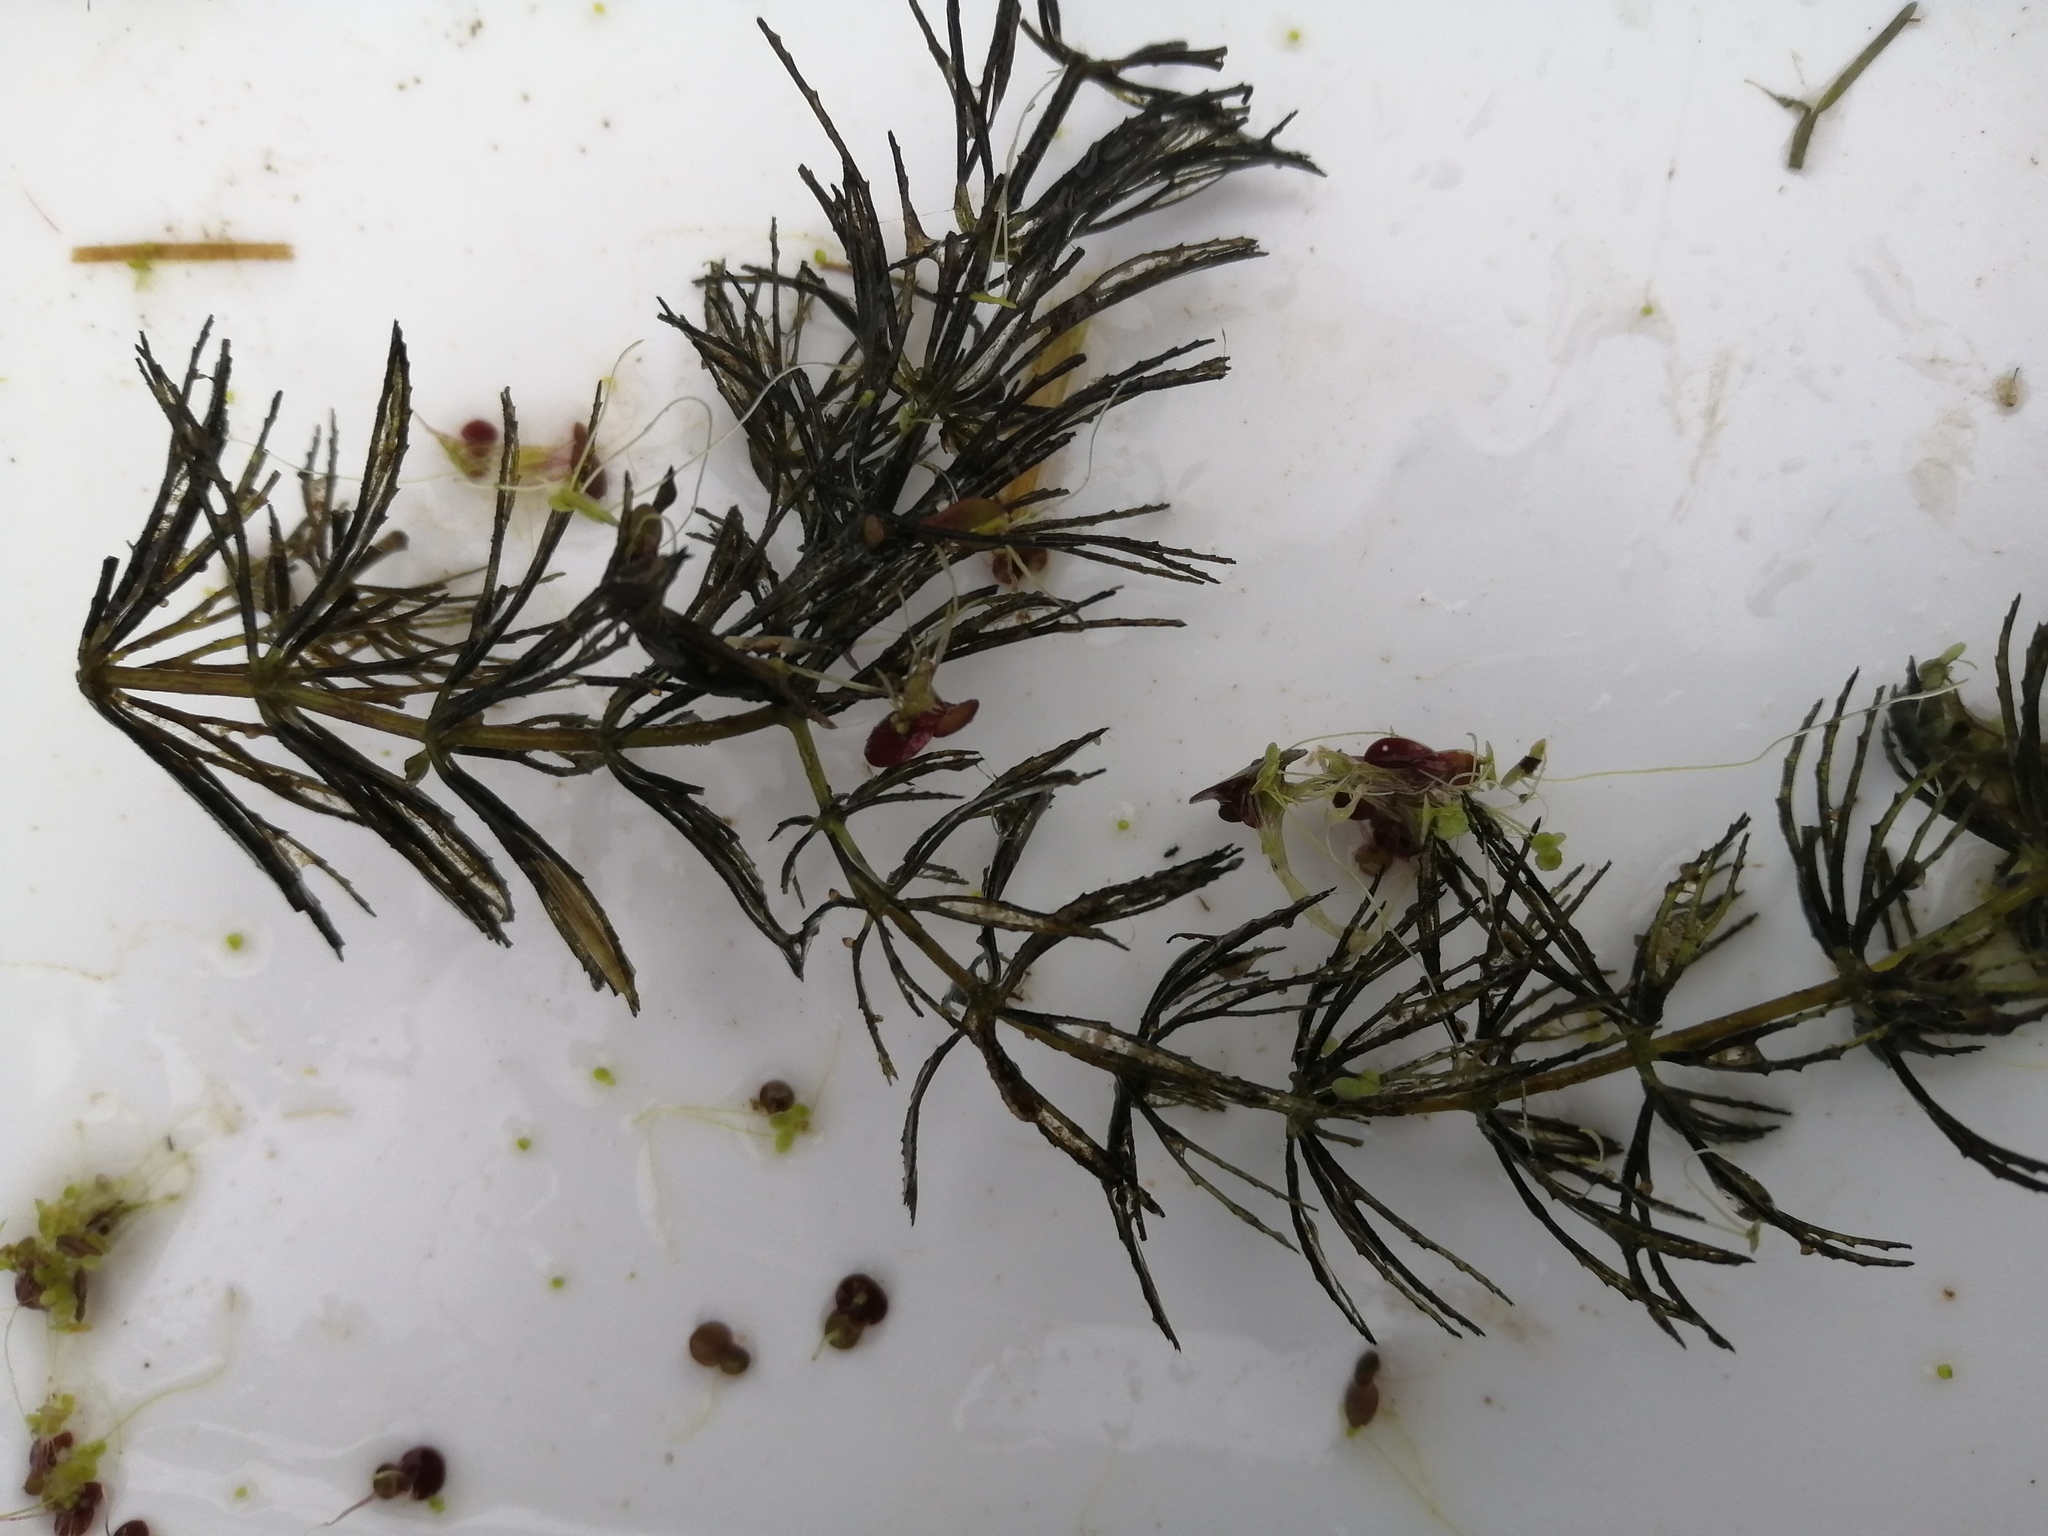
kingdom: Plantae
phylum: Tracheophyta
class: Magnoliopsida
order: Ceratophyllales
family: Ceratophyllaceae
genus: Ceratophyllum
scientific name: Ceratophyllum demersum
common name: Rigid hornwort
